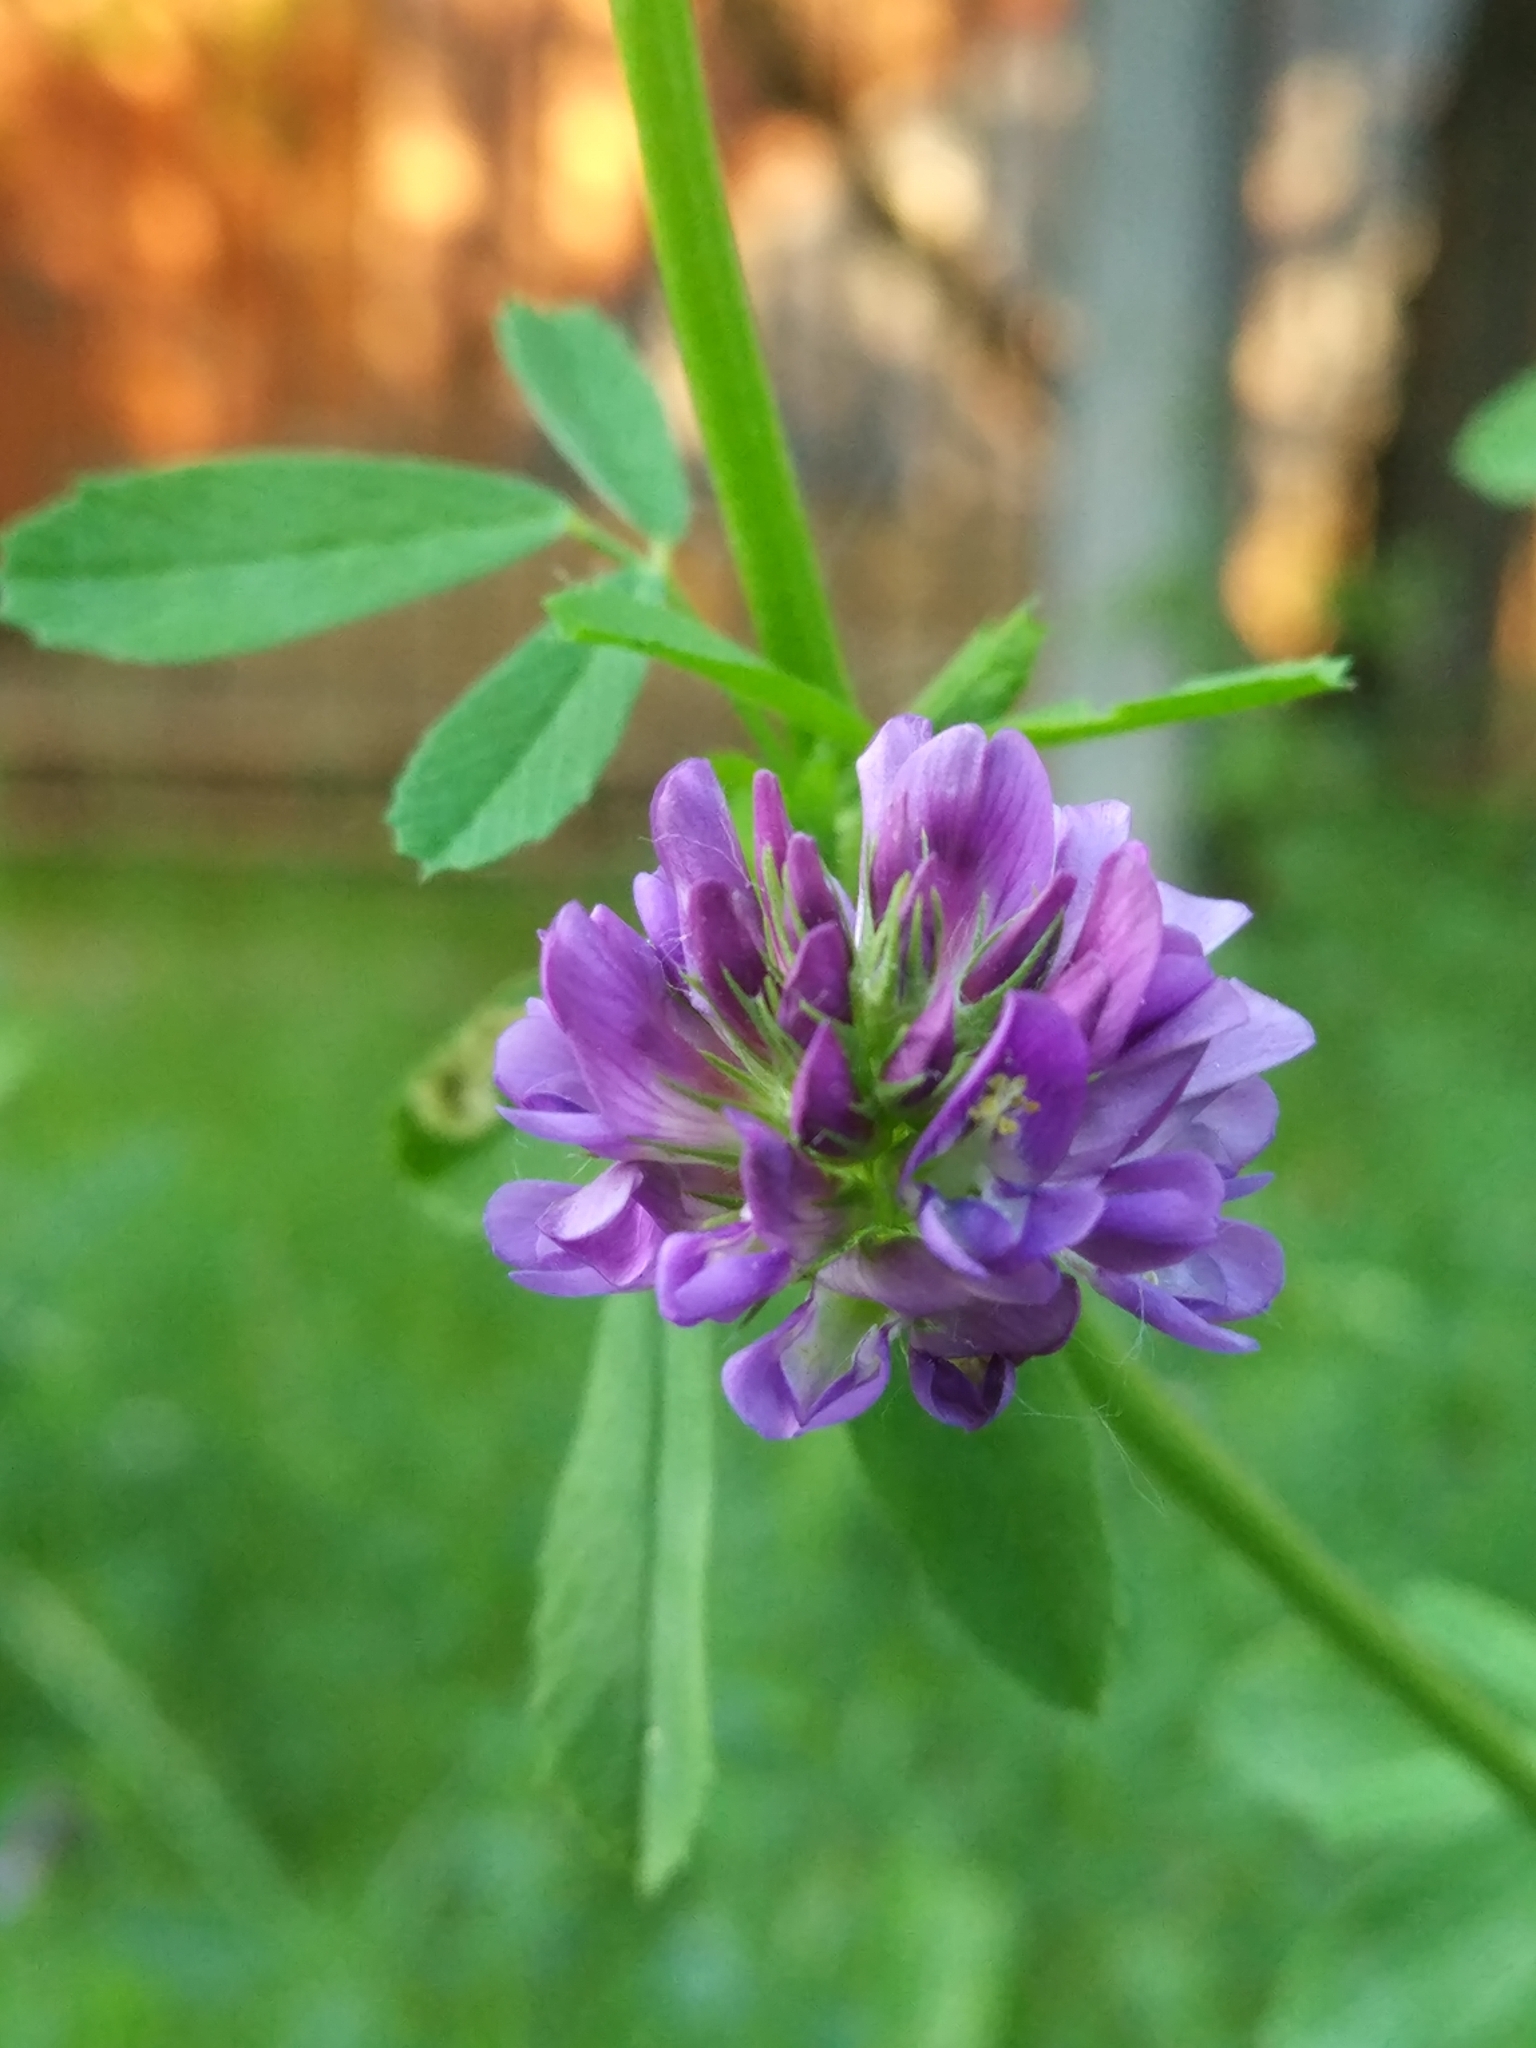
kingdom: Plantae
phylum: Tracheophyta
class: Magnoliopsida
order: Fabales
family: Fabaceae
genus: Medicago
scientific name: Medicago sativa
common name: Alfalfa
